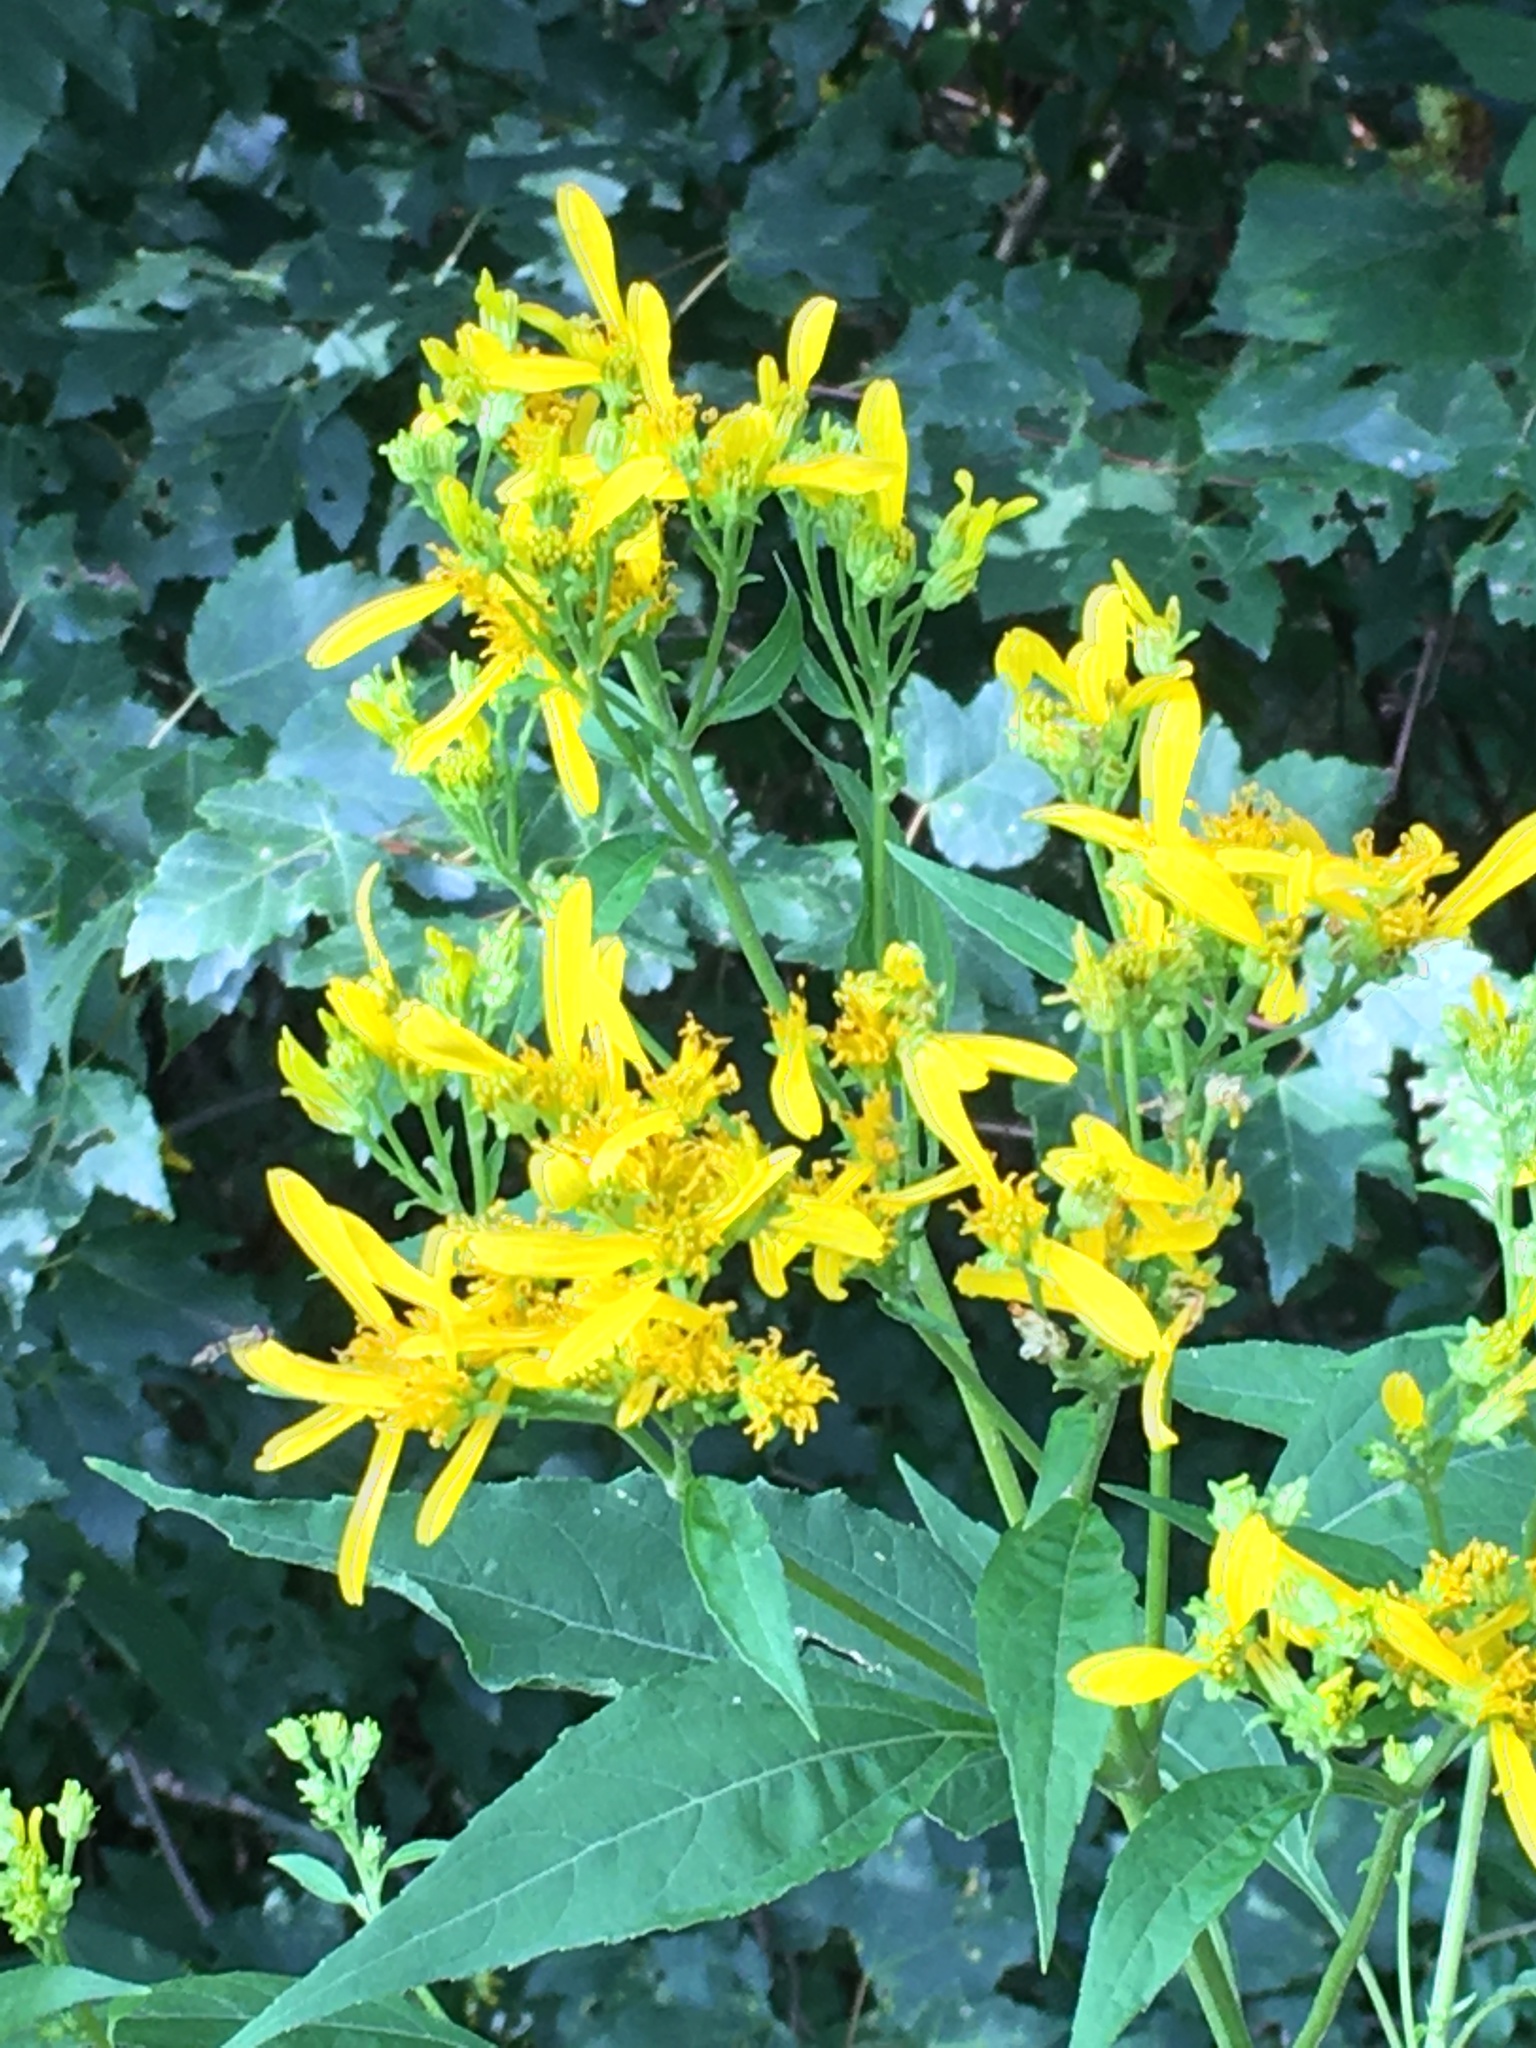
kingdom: Plantae
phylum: Tracheophyta
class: Magnoliopsida
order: Asterales
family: Asteraceae
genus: Verbesina
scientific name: Verbesina occidentalis
